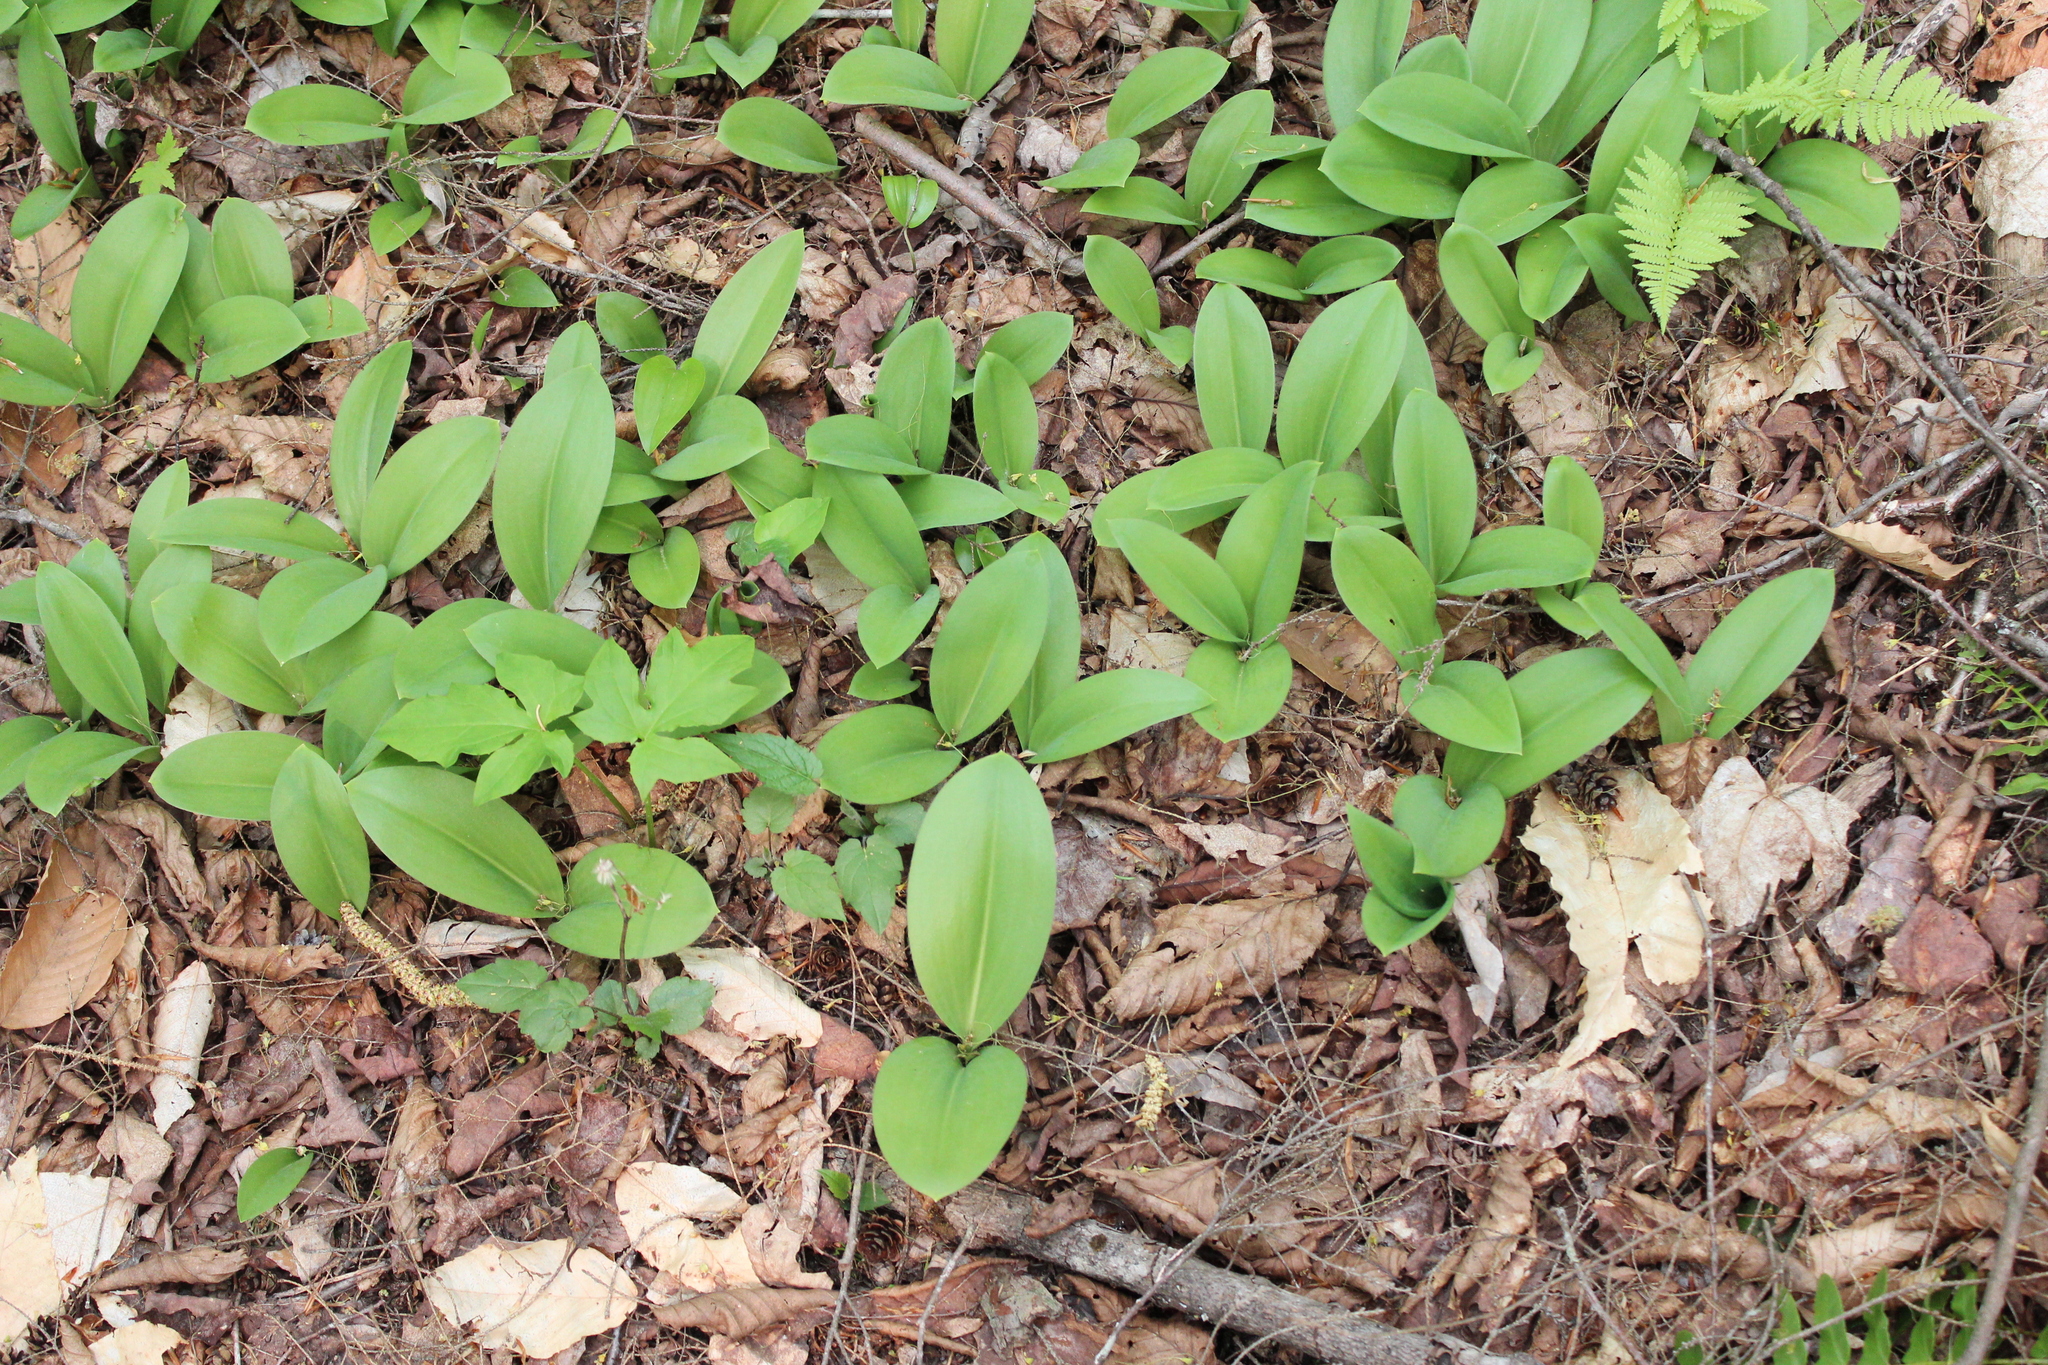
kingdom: Plantae
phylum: Tracheophyta
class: Liliopsida
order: Liliales
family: Liliaceae
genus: Clintonia
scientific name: Clintonia borealis
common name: Yellow clintonia
